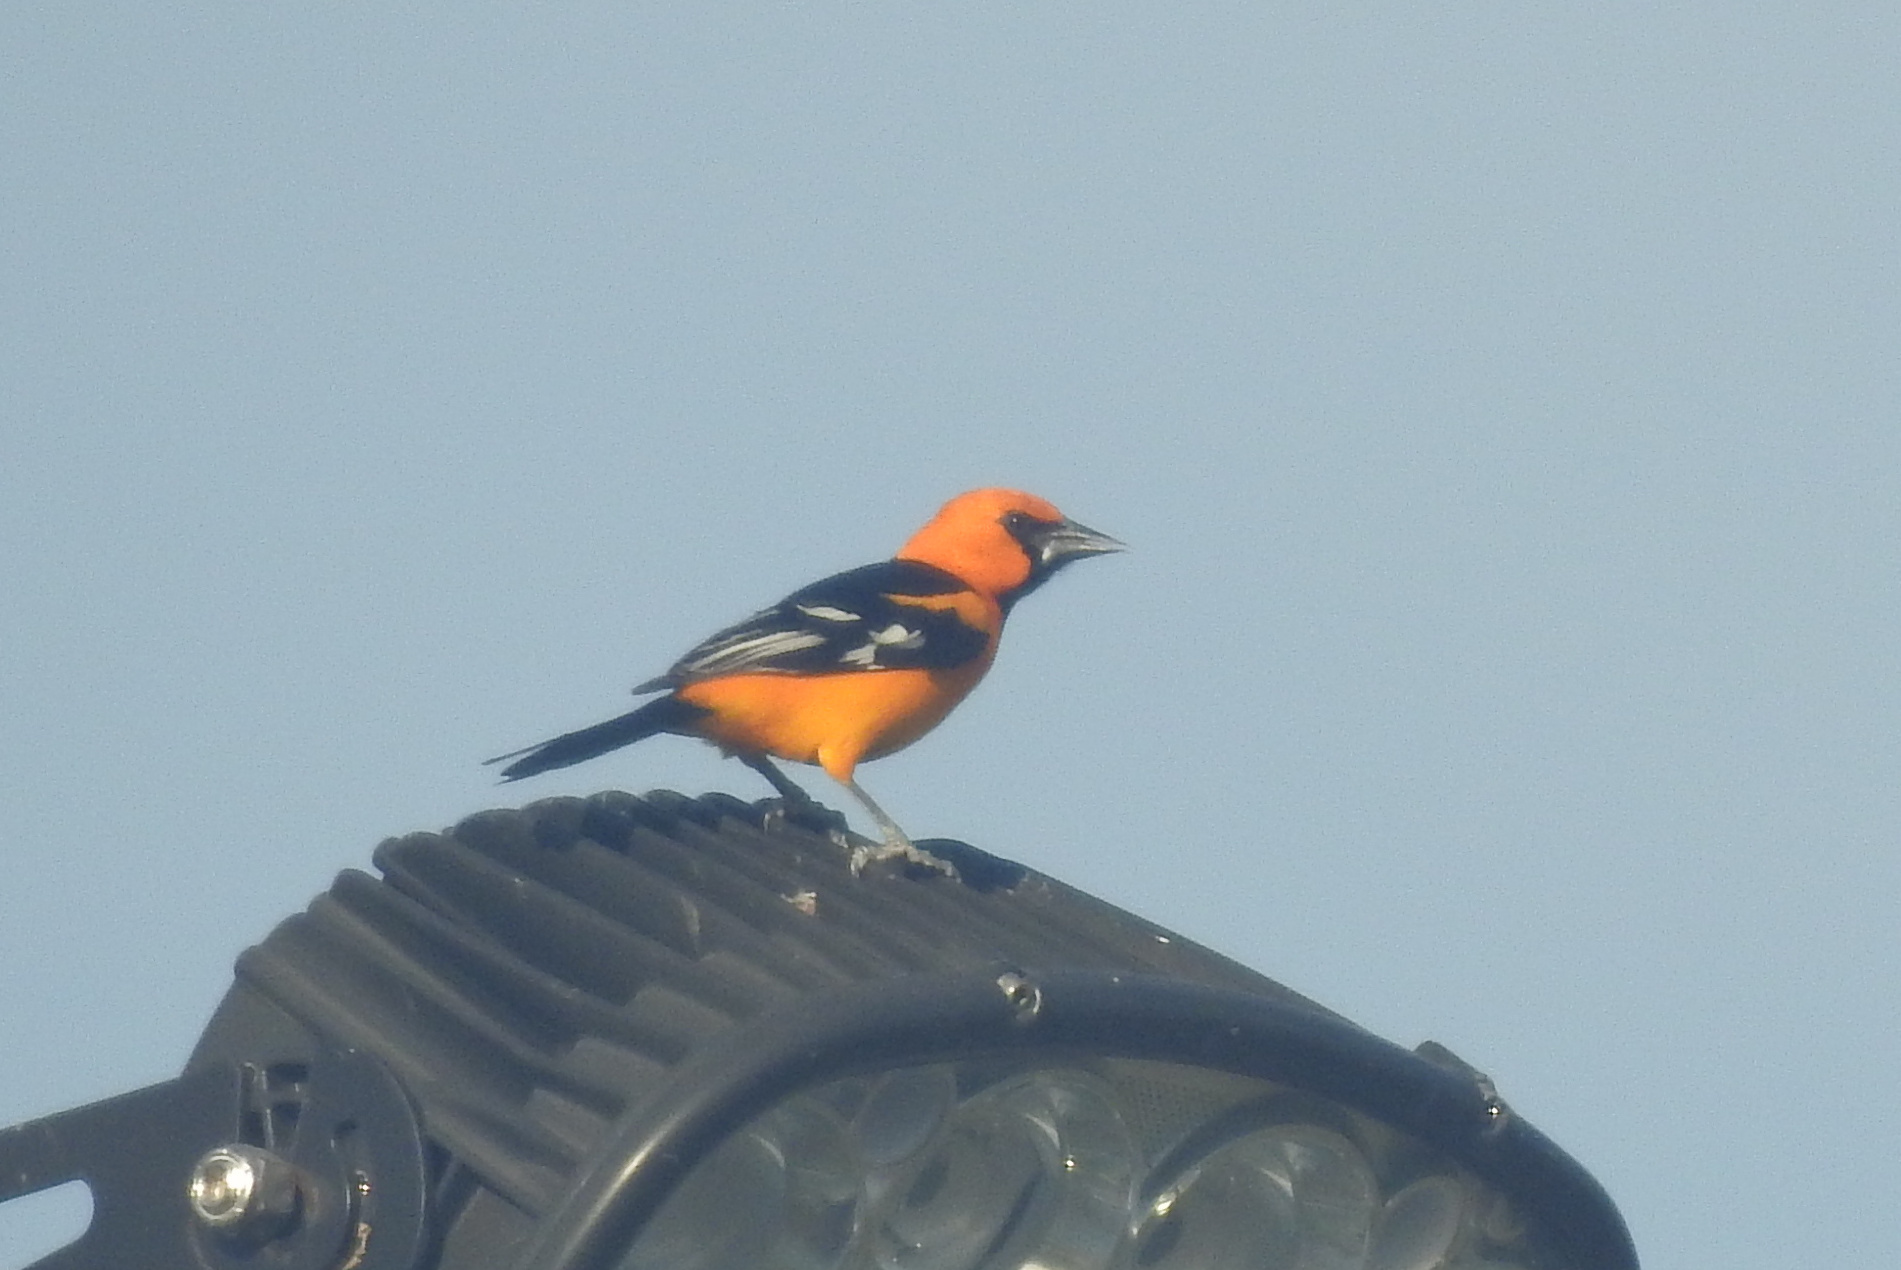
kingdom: Animalia
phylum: Chordata
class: Aves
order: Passeriformes
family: Icteridae
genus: Icterus
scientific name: Icterus gularis
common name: Altamira oriole
